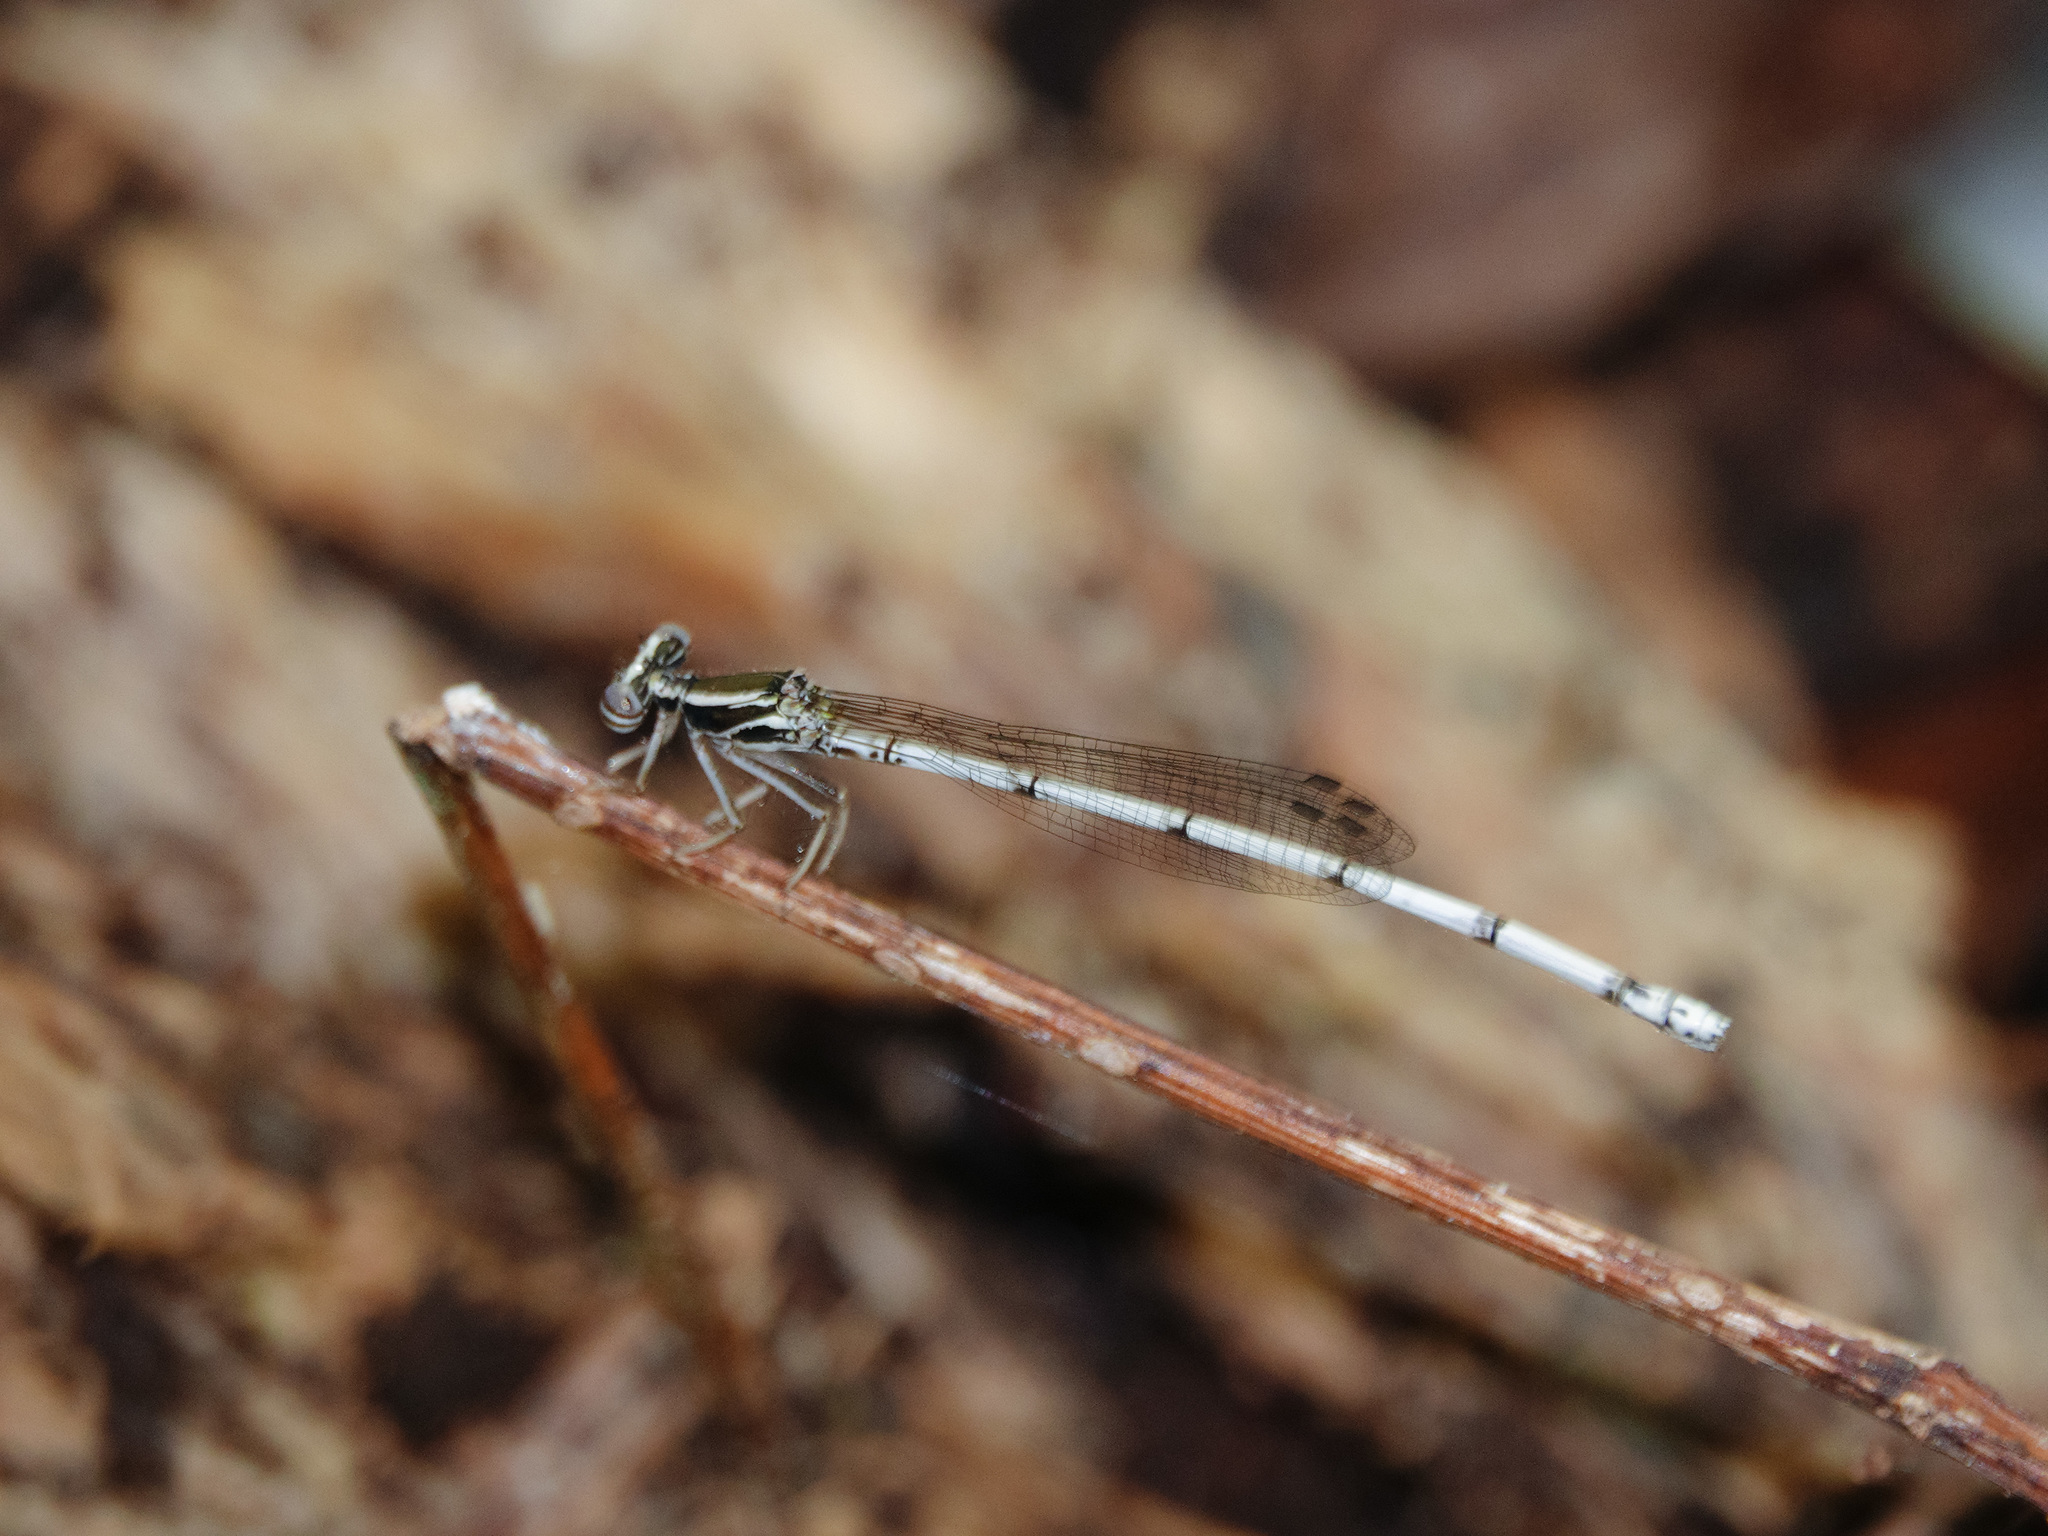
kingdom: Animalia
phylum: Arthropoda
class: Insecta
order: Odonata
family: Platycnemididae
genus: Copera
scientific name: Copera marginipes
